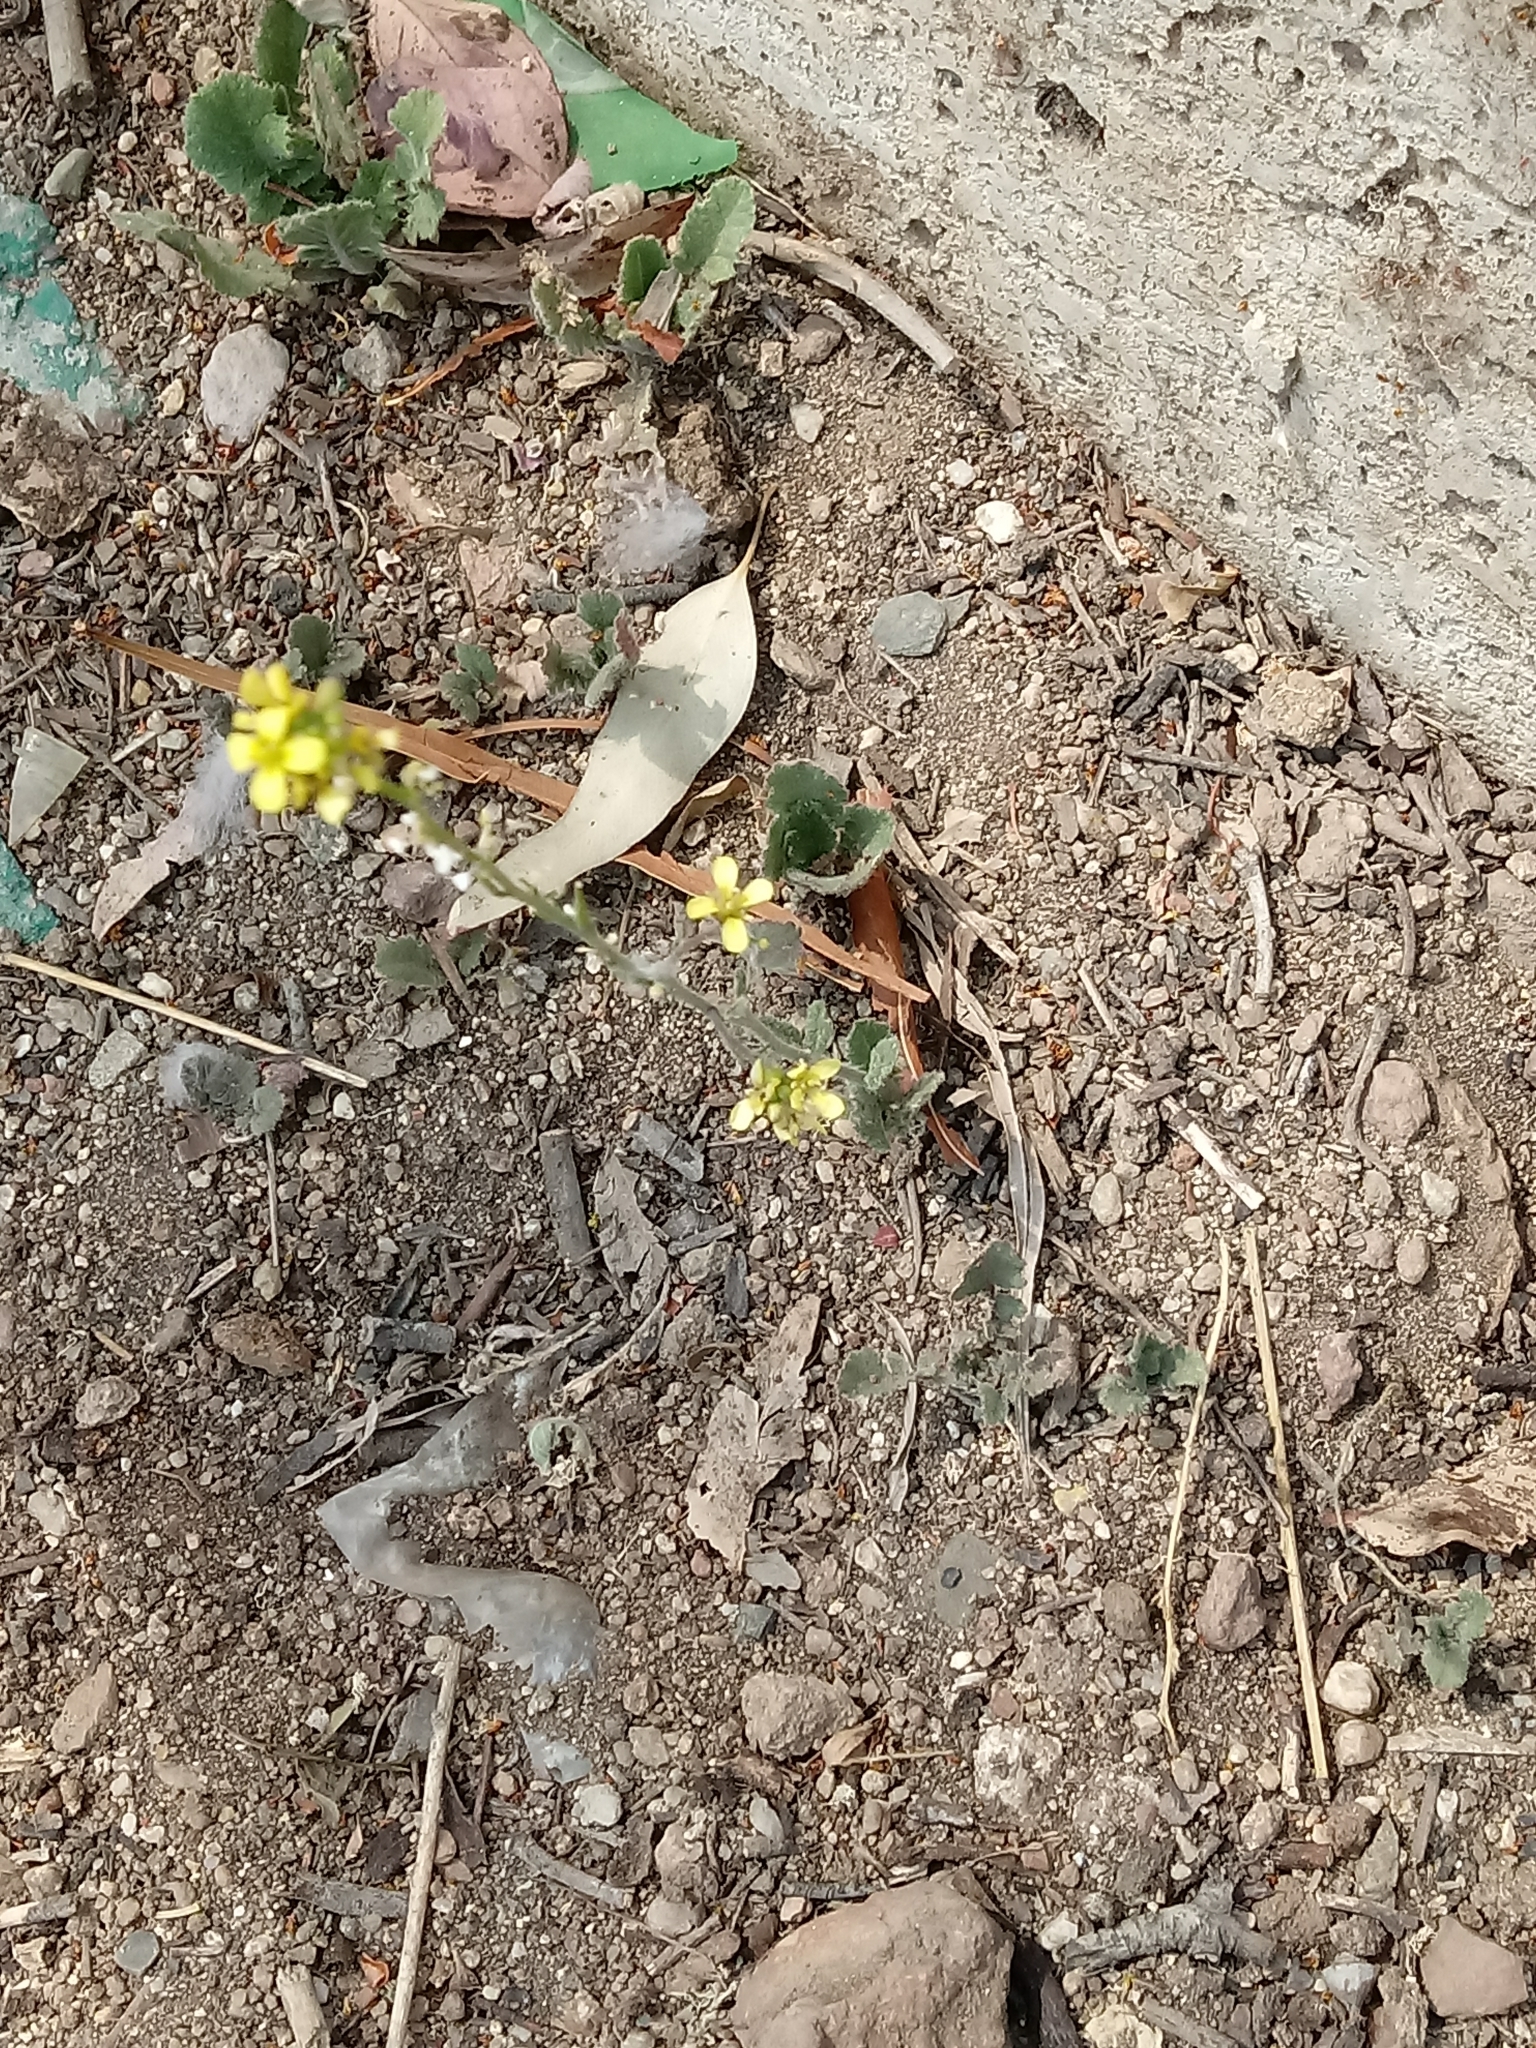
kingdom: Plantae
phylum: Tracheophyta
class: Magnoliopsida
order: Brassicales
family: Brassicaceae
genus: Hirschfeldia
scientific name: Hirschfeldia incana
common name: Hoary mustard
